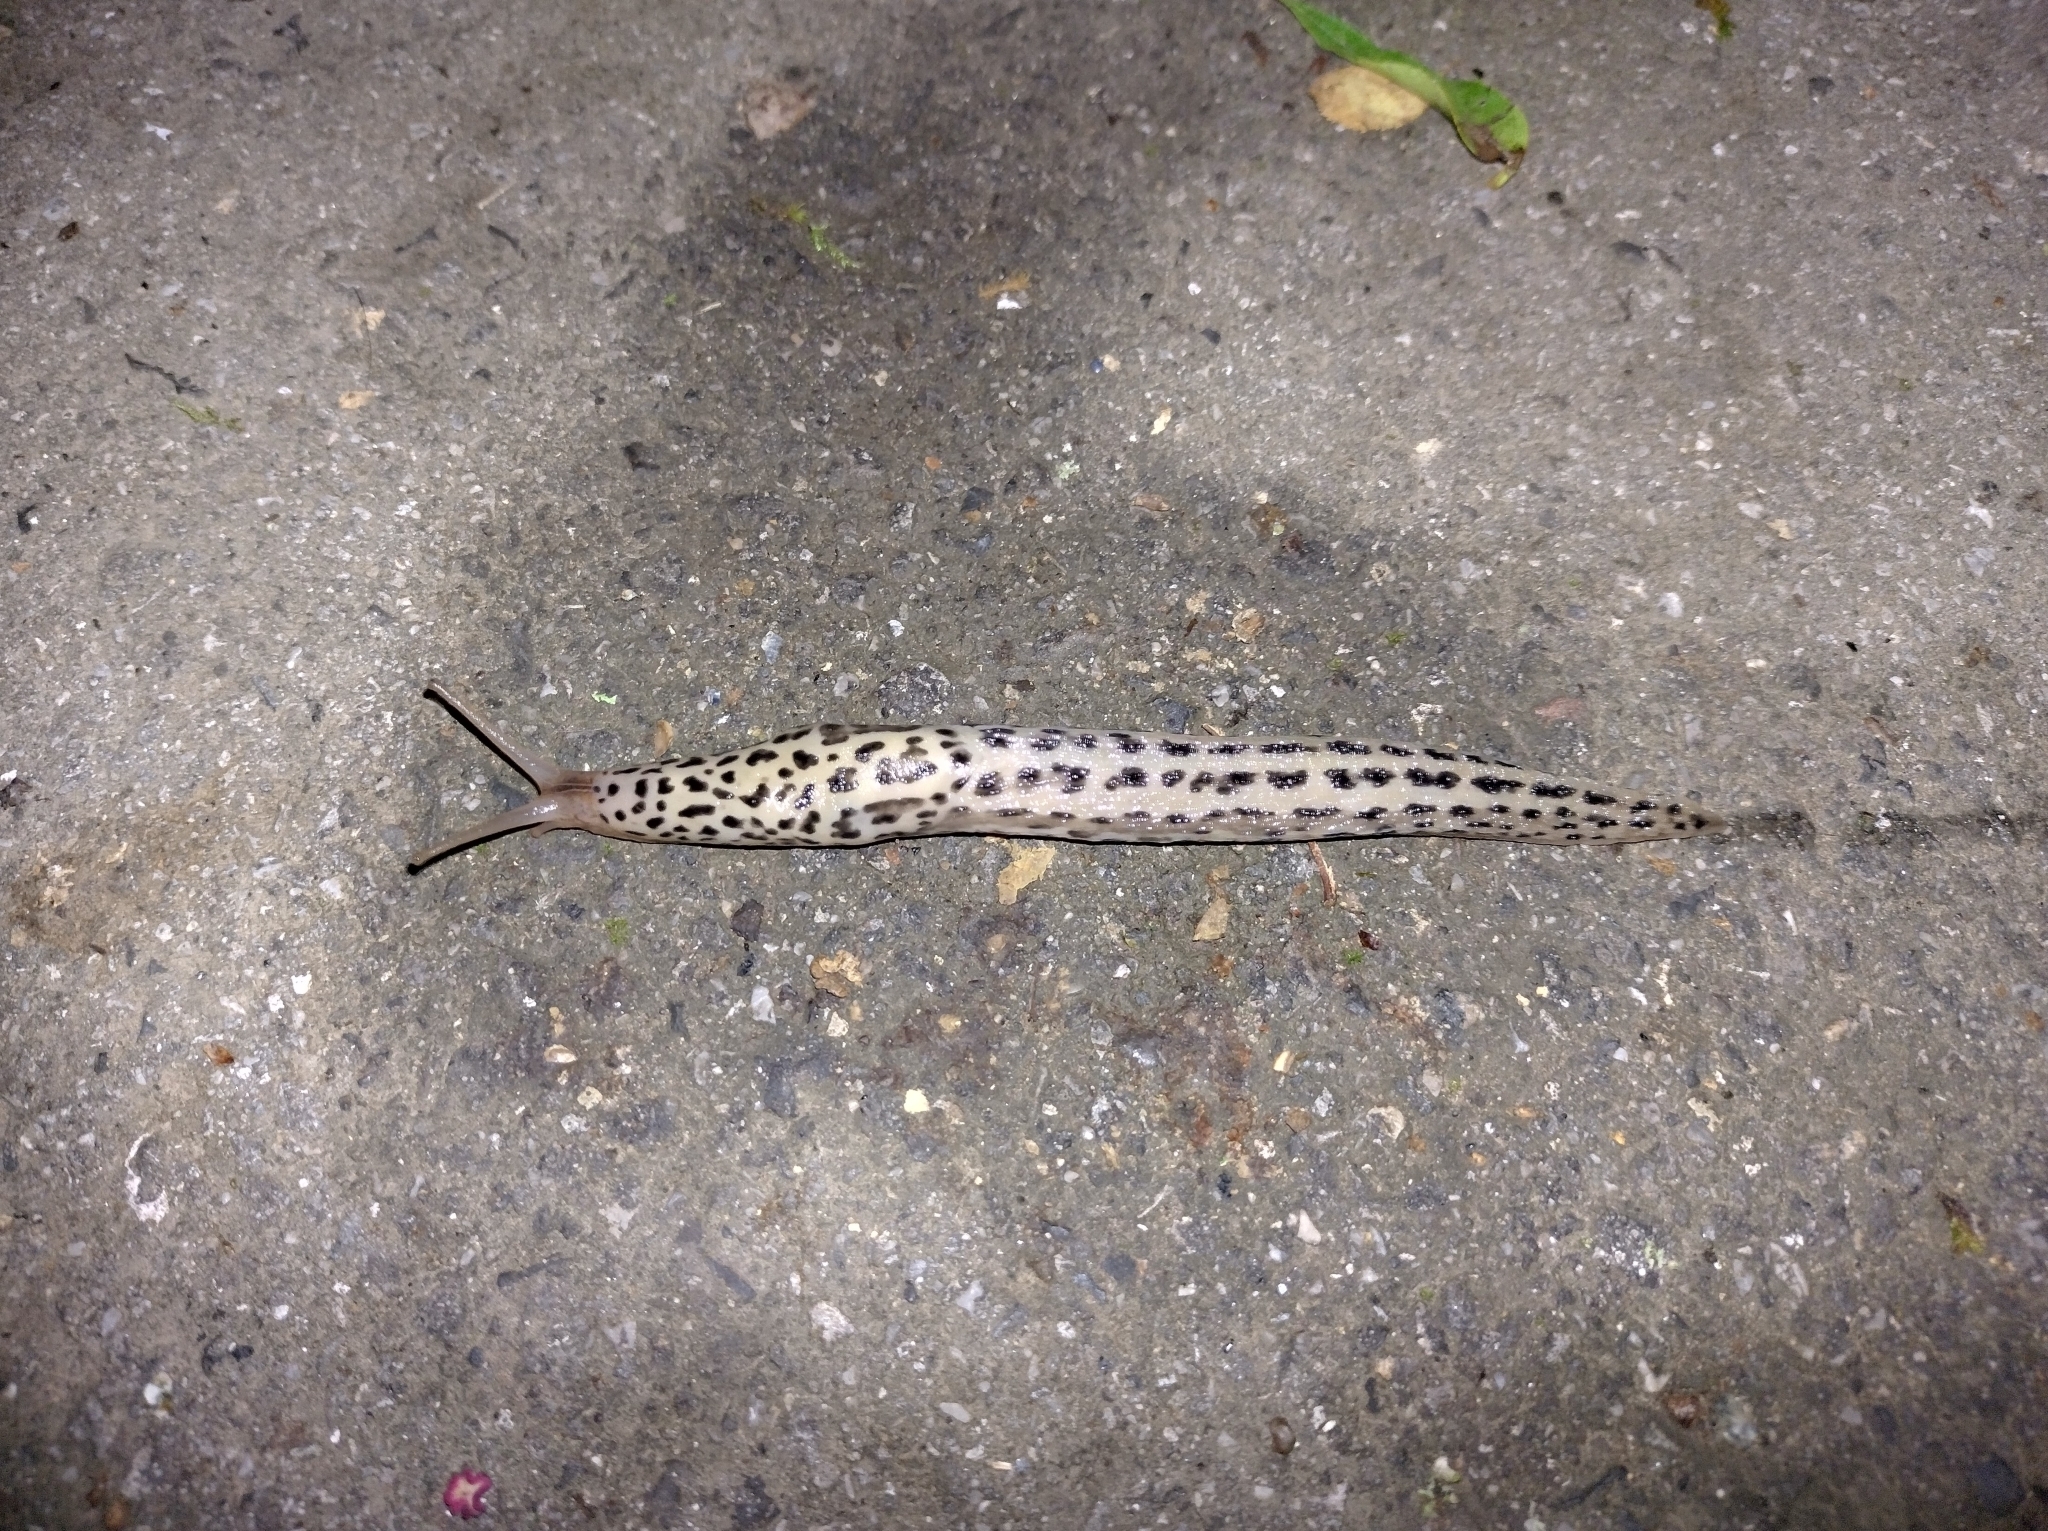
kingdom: Animalia
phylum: Mollusca
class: Gastropoda
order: Stylommatophora
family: Limacidae
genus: Limax
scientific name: Limax maximus
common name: Great grey slug
